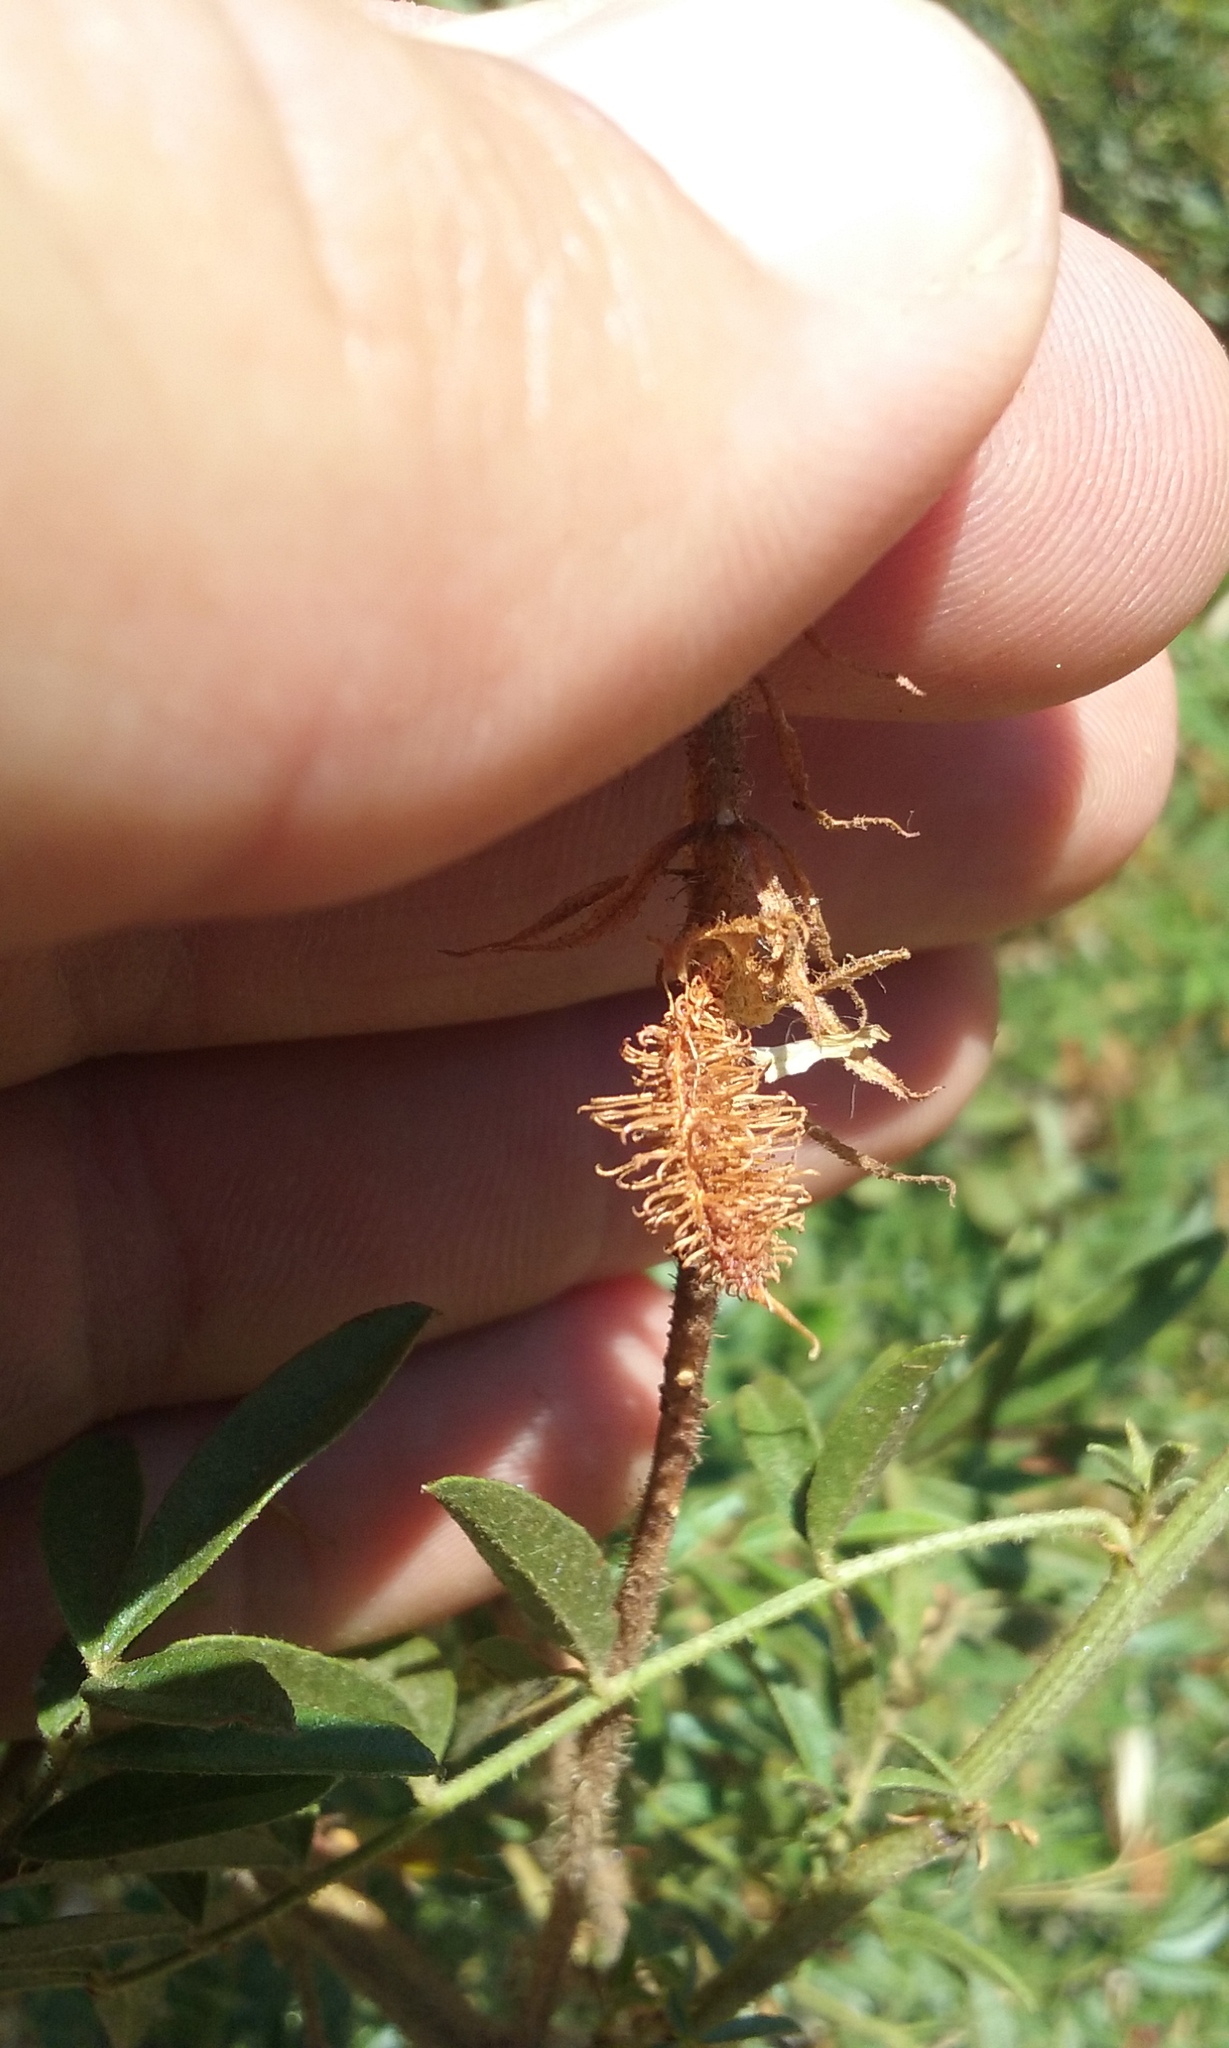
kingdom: Plantae
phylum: Tracheophyta
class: Magnoliopsida
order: Fabales
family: Fabaceae
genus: Glycyrrhiza
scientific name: Glycyrrhiza lepidota
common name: American liquorice
